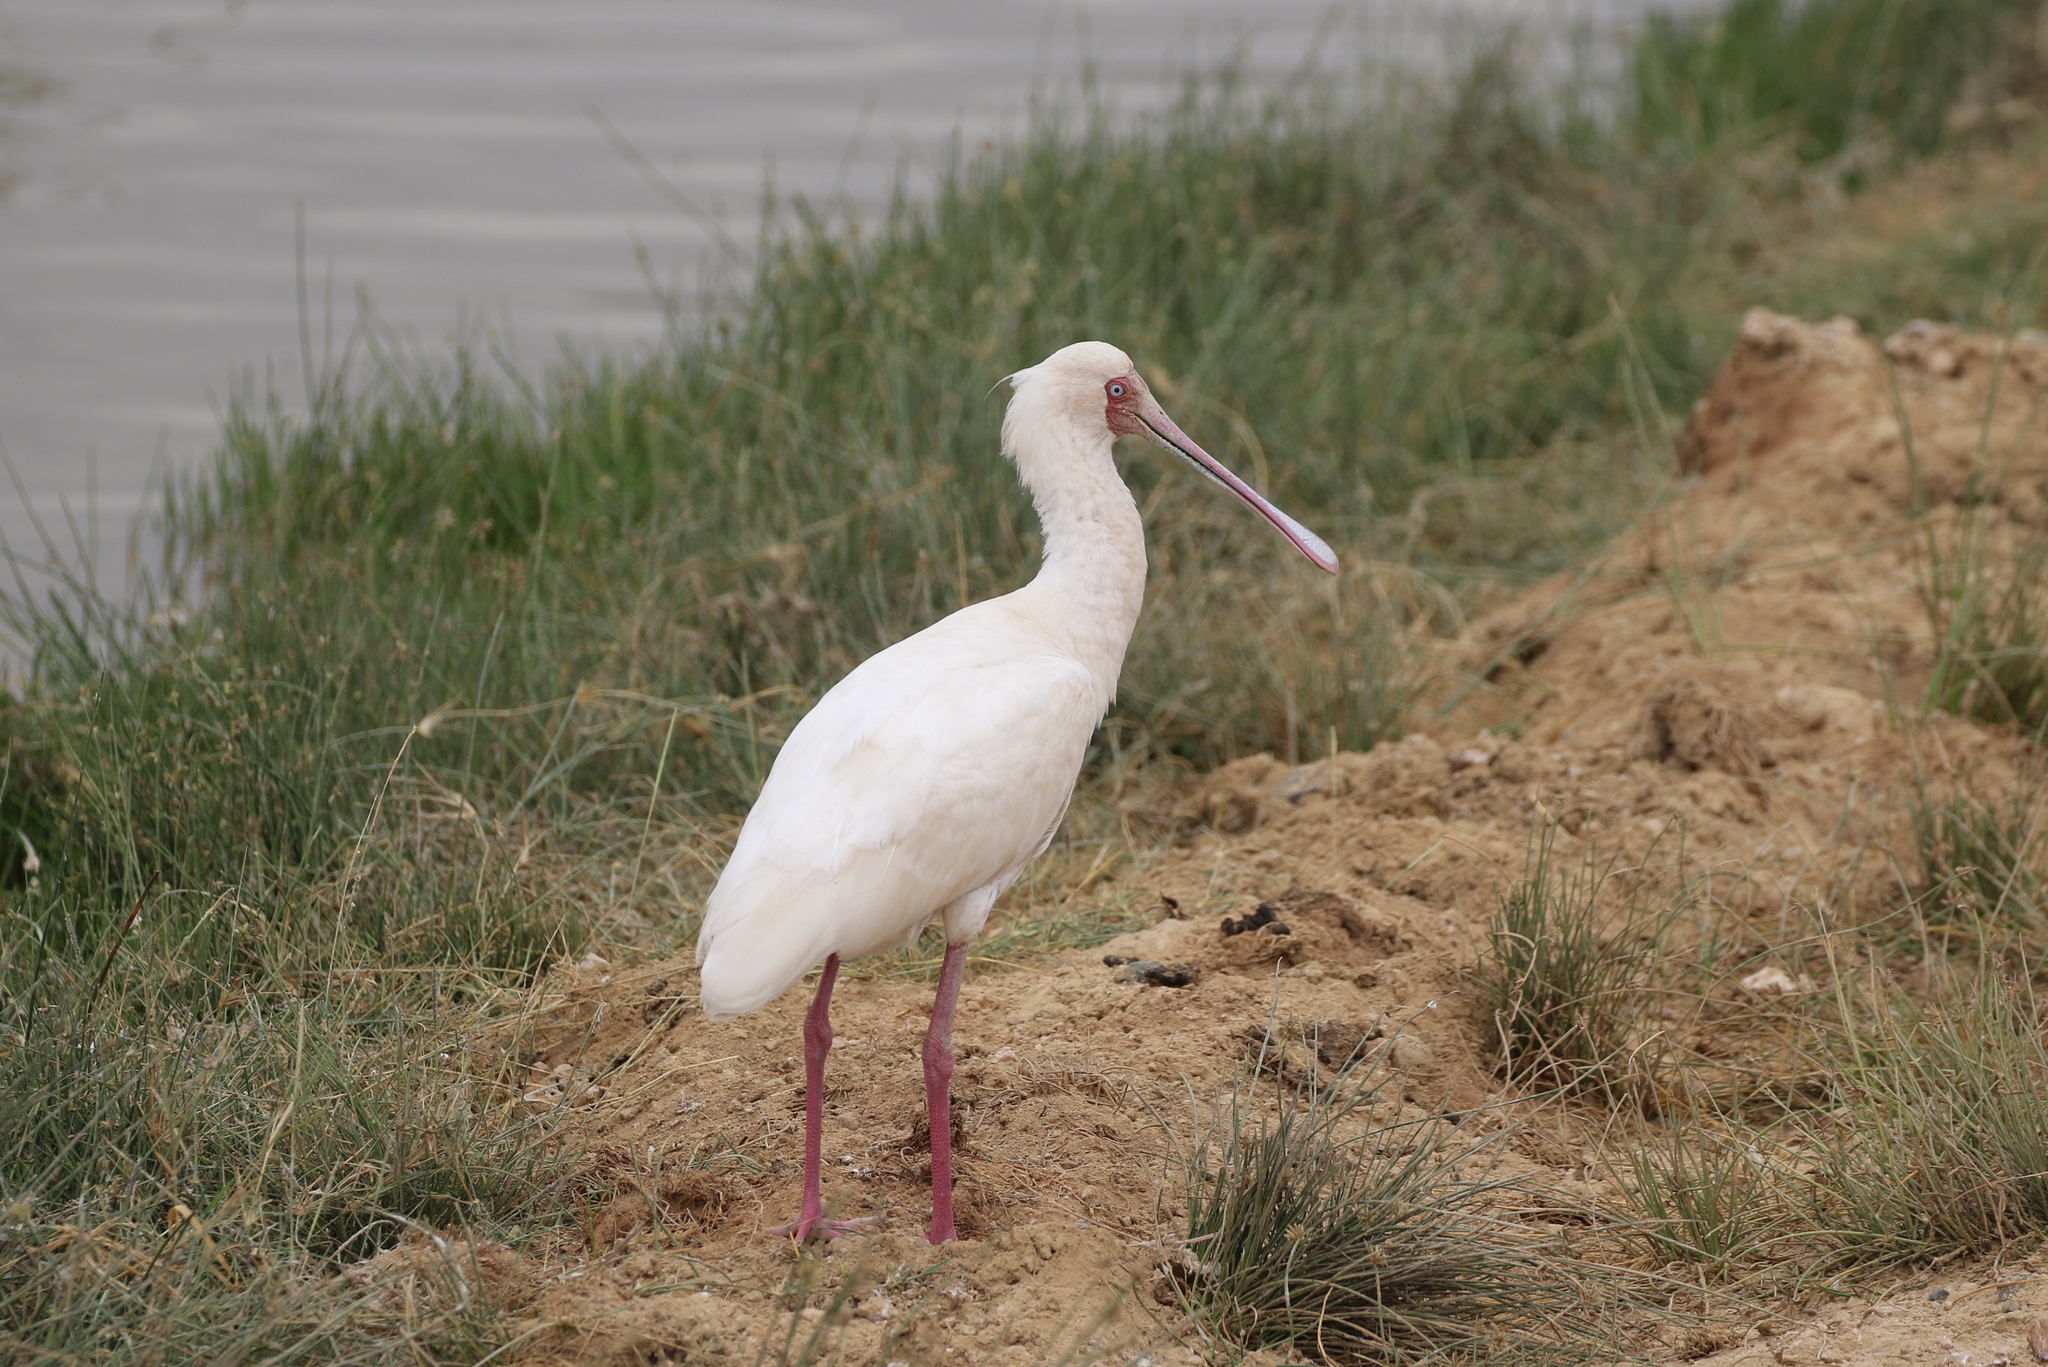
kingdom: Animalia
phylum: Chordata
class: Aves
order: Pelecaniformes
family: Threskiornithidae
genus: Platalea
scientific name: Platalea alba
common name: African spoonbill
